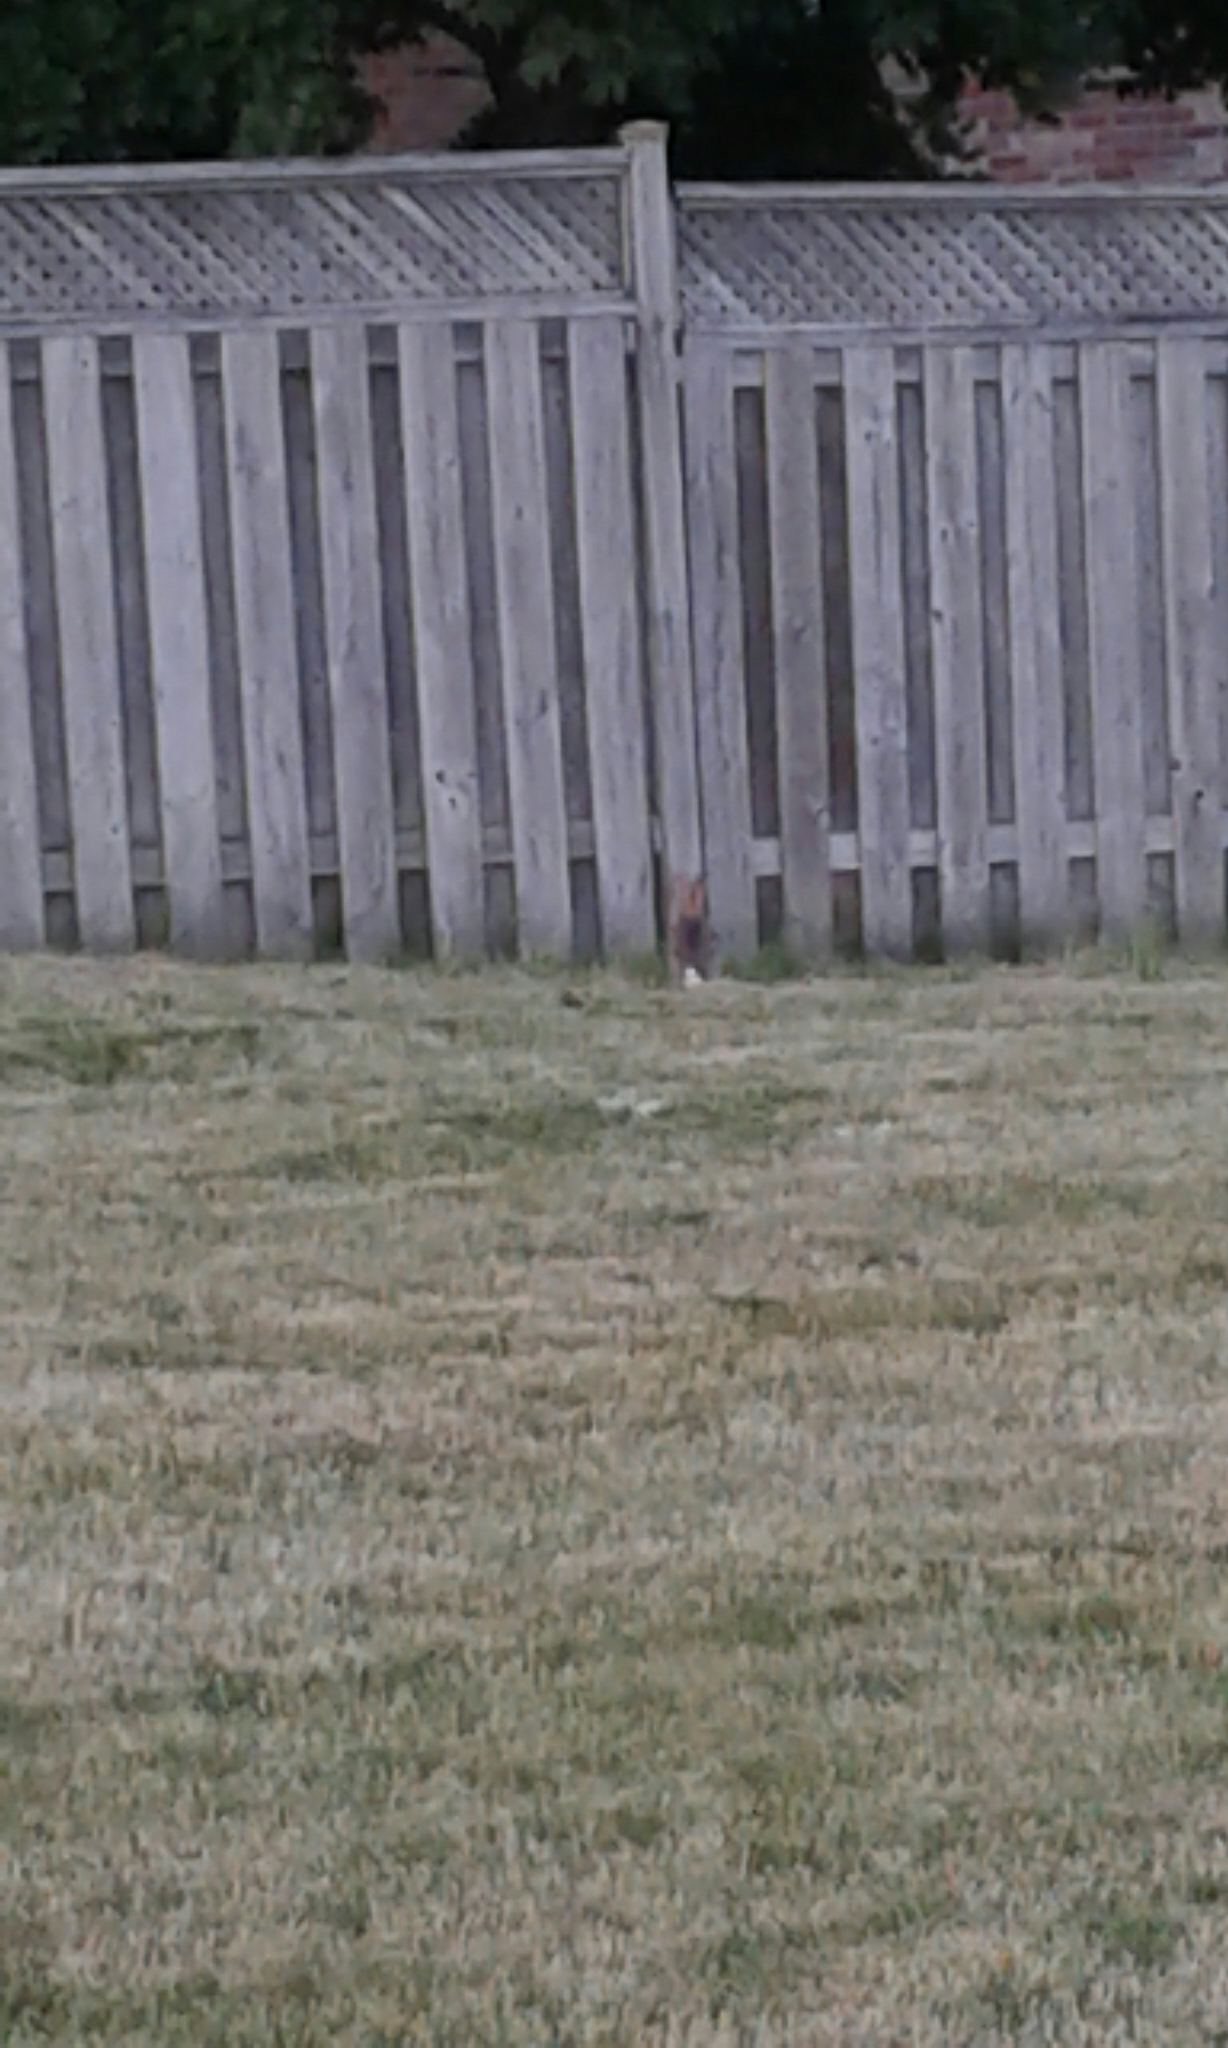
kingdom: Animalia
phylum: Chordata
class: Mammalia
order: Lagomorpha
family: Leporidae
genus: Sylvilagus
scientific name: Sylvilagus floridanus
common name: Eastern cottontail
